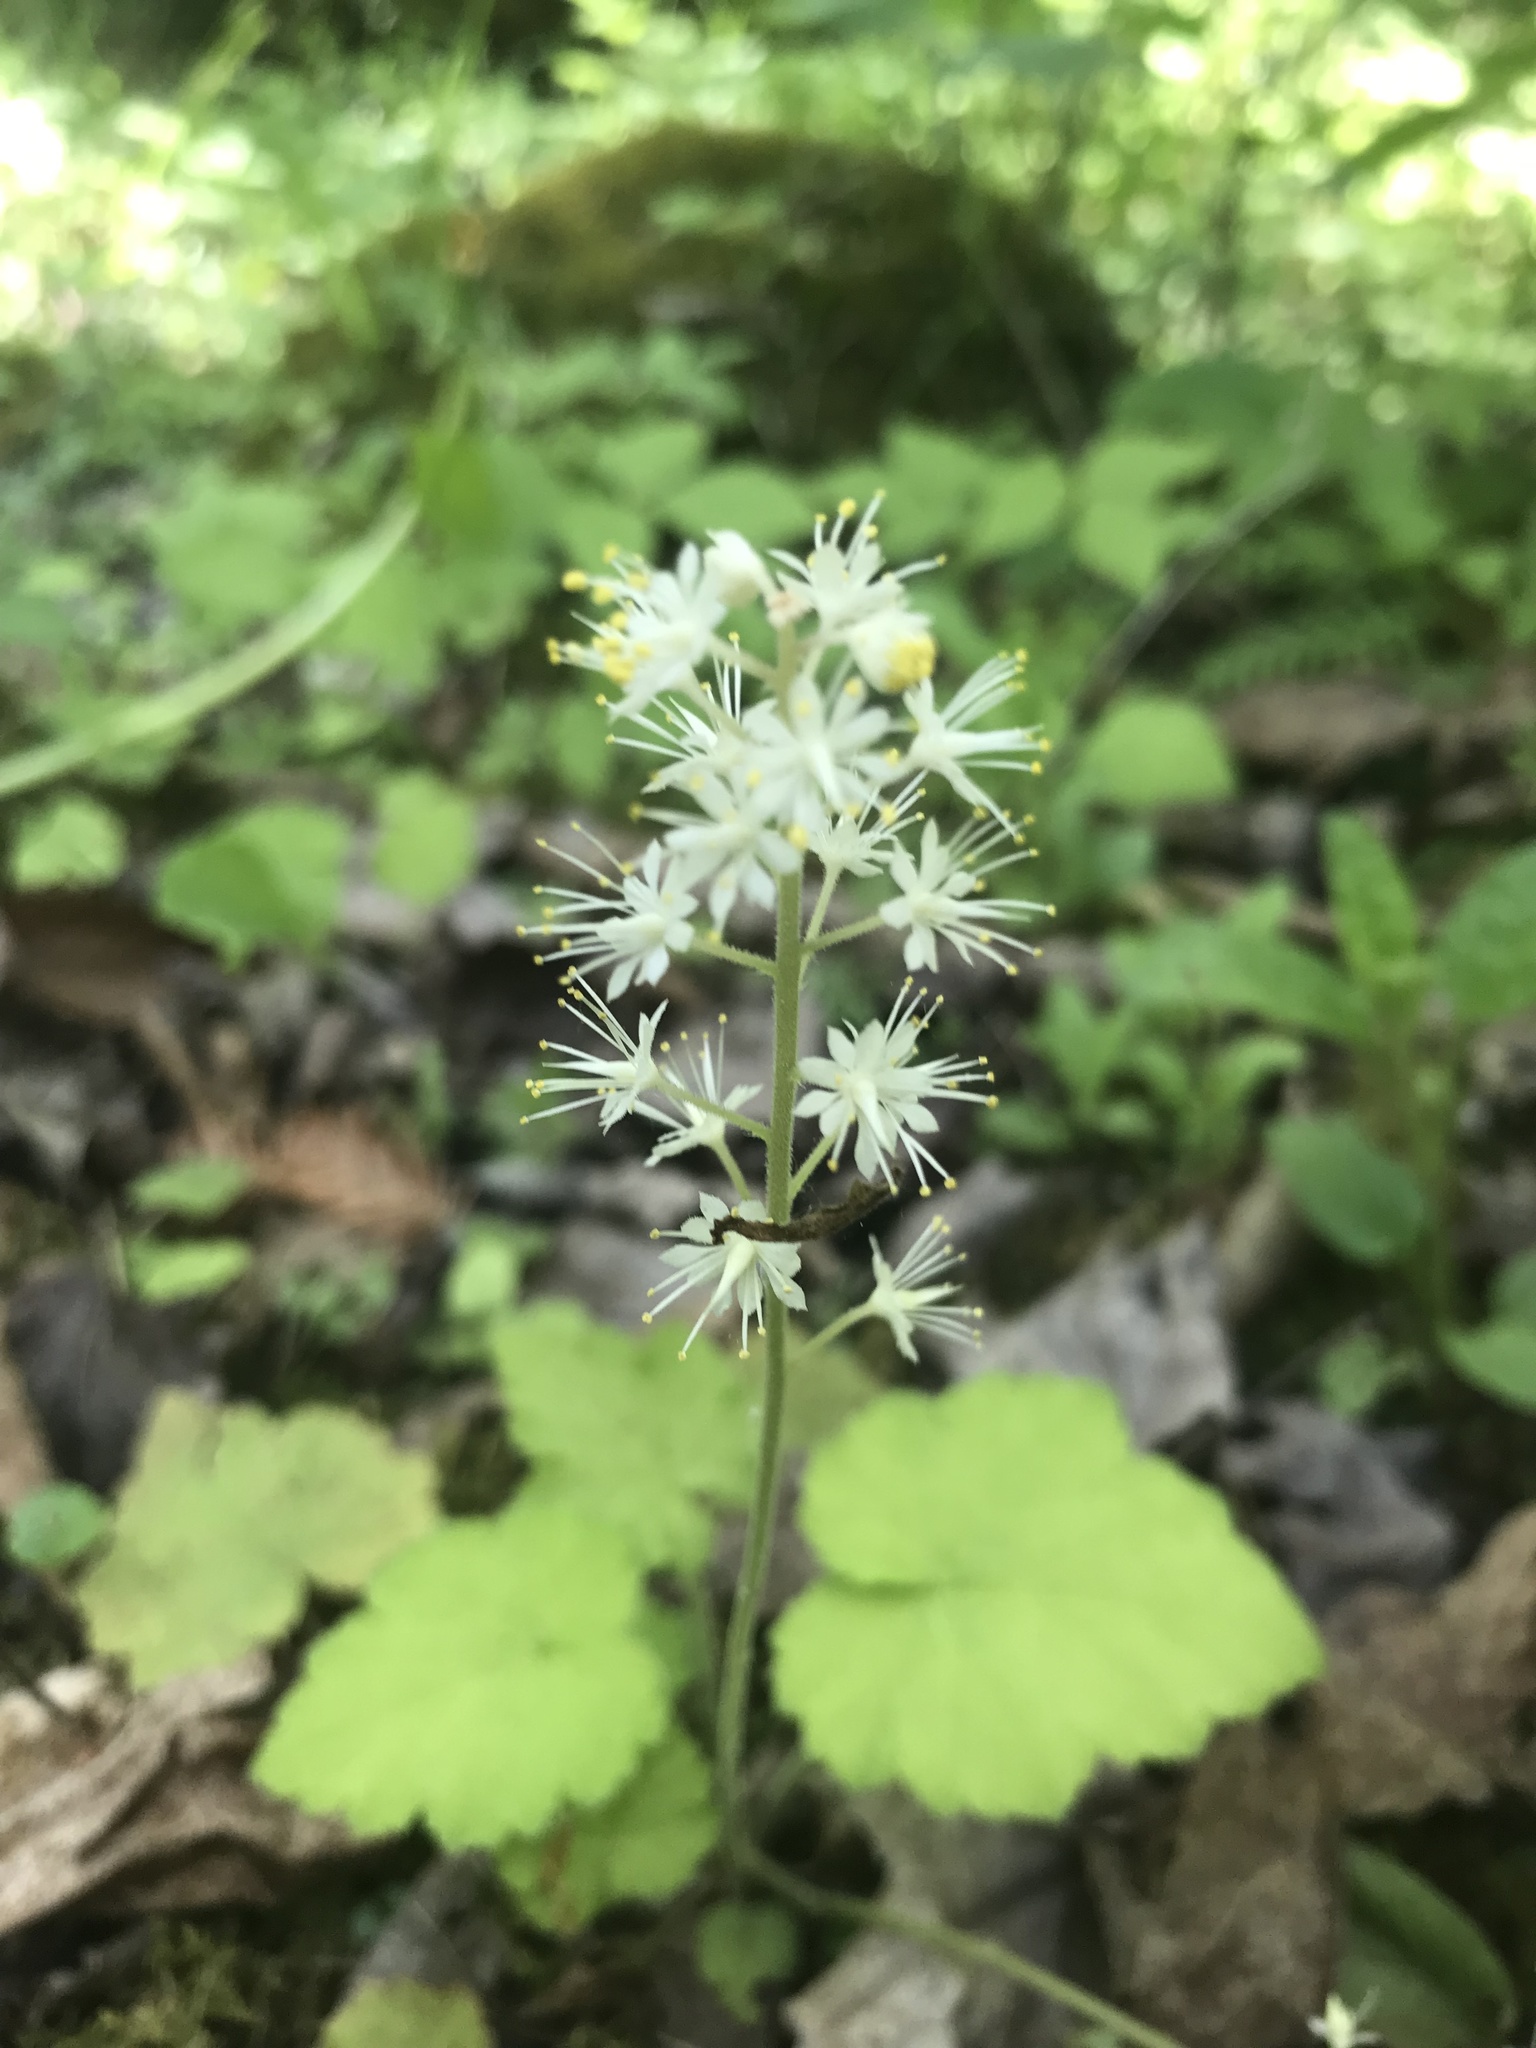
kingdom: Plantae
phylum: Tracheophyta
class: Magnoliopsida
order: Saxifragales
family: Saxifragaceae
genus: Tiarella
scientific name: Tiarella stolonifera
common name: Stoloniferous foamflower
